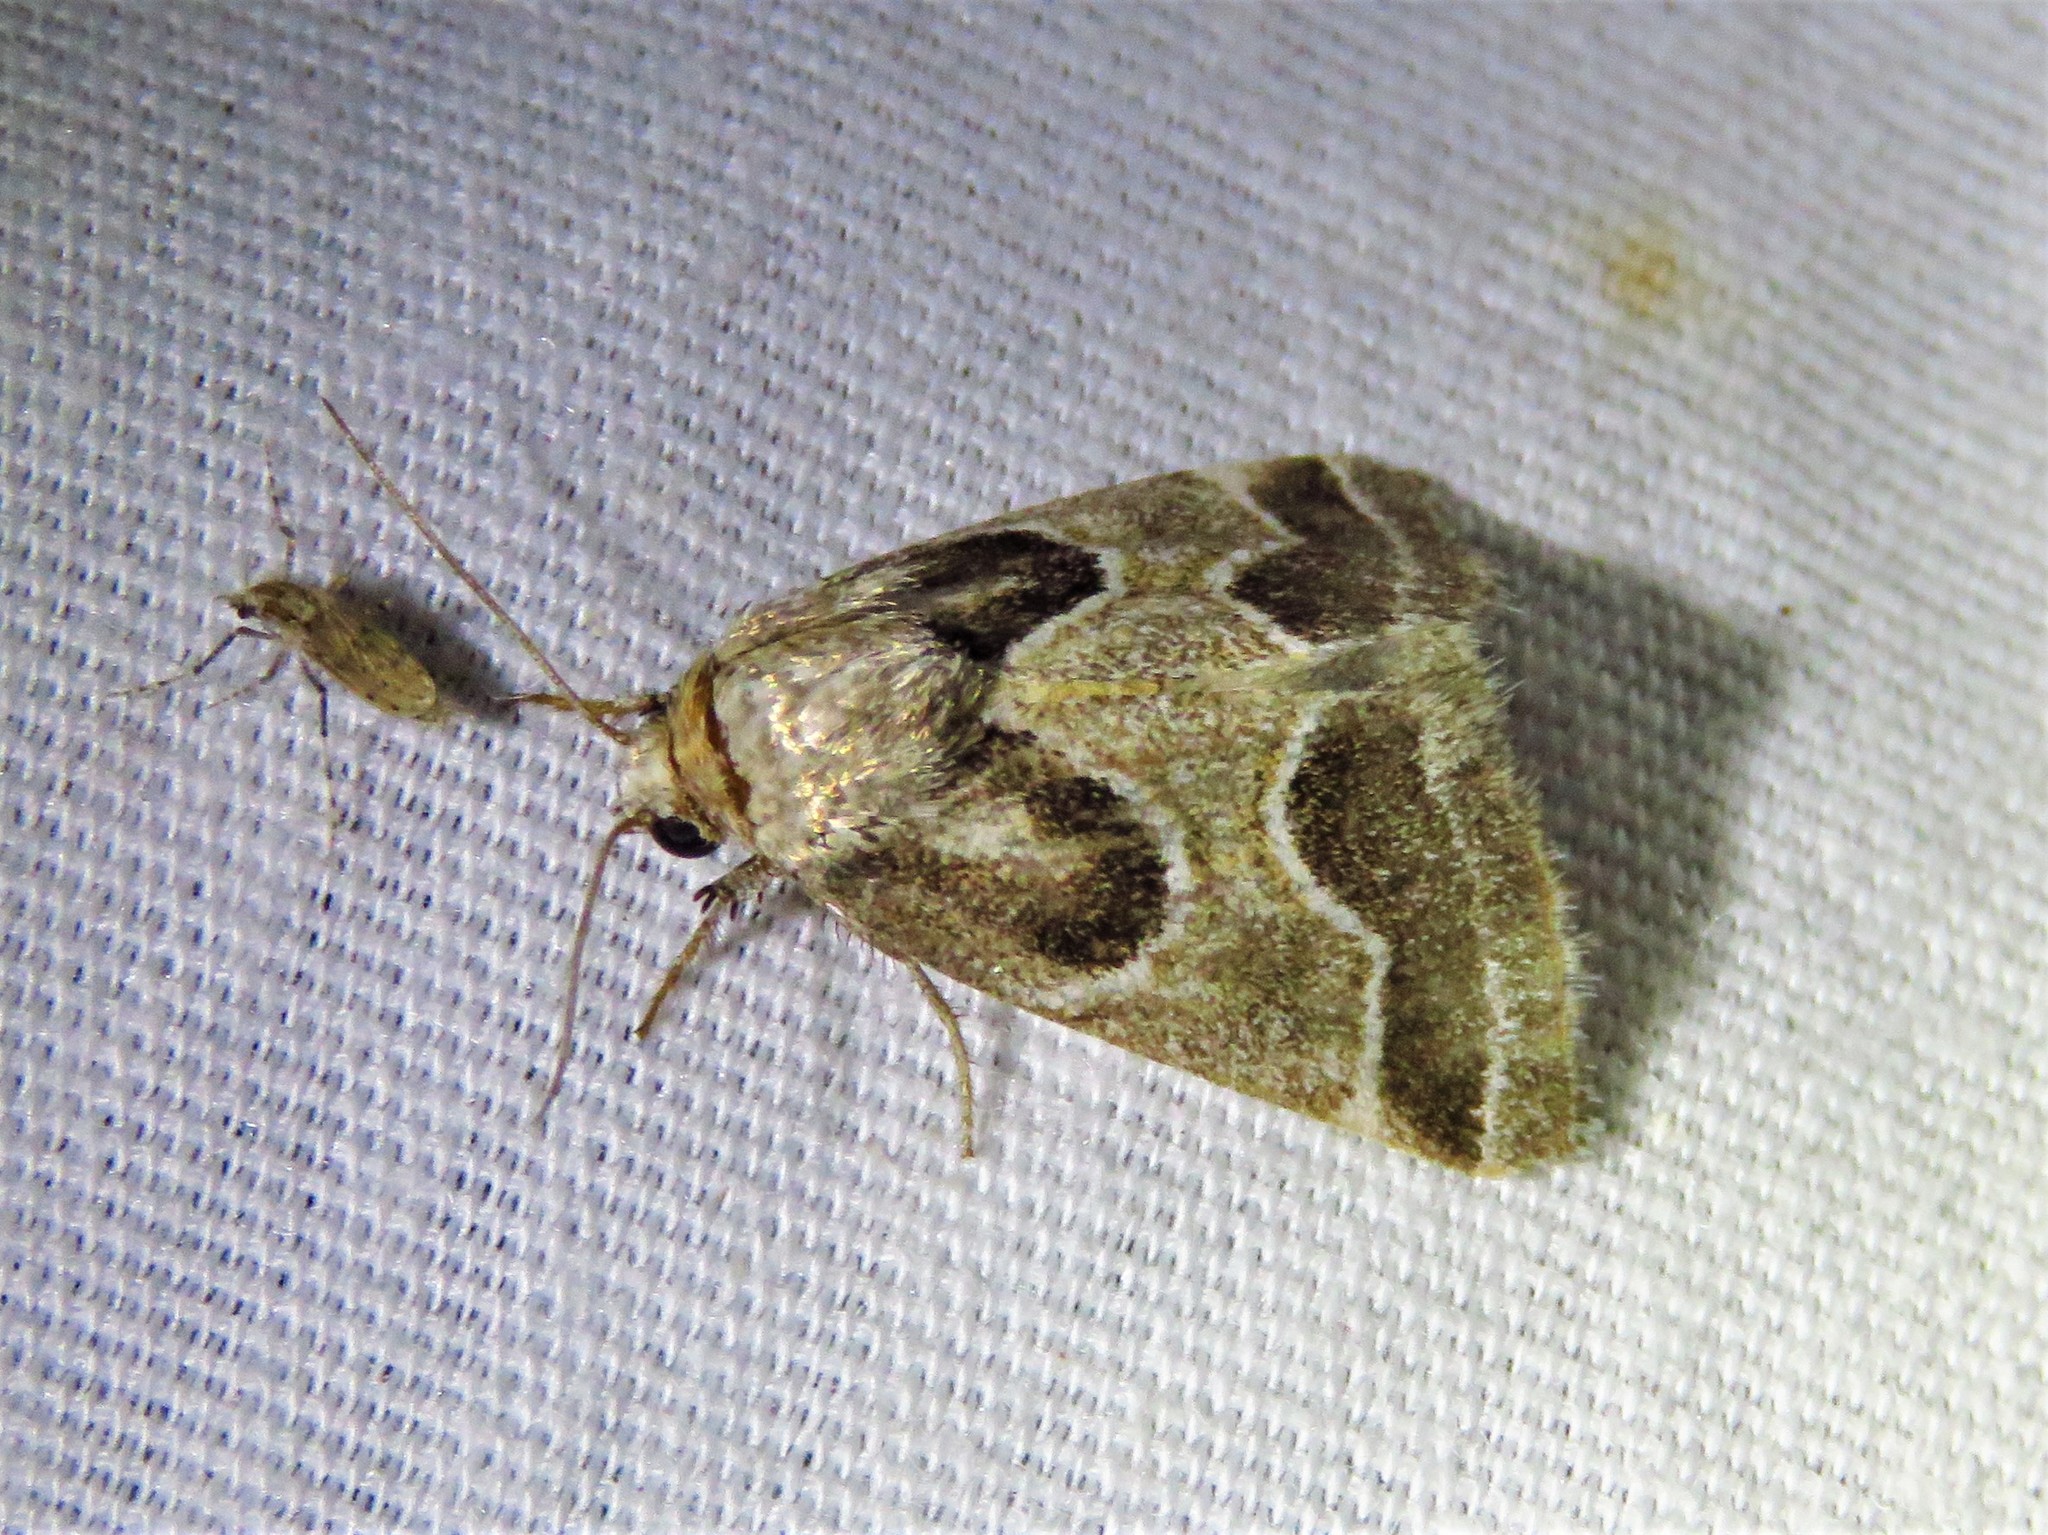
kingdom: Animalia
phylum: Arthropoda
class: Insecta
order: Lepidoptera
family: Noctuidae
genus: Schinia
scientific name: Schinia rivulosa
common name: Scarce meal-moth
